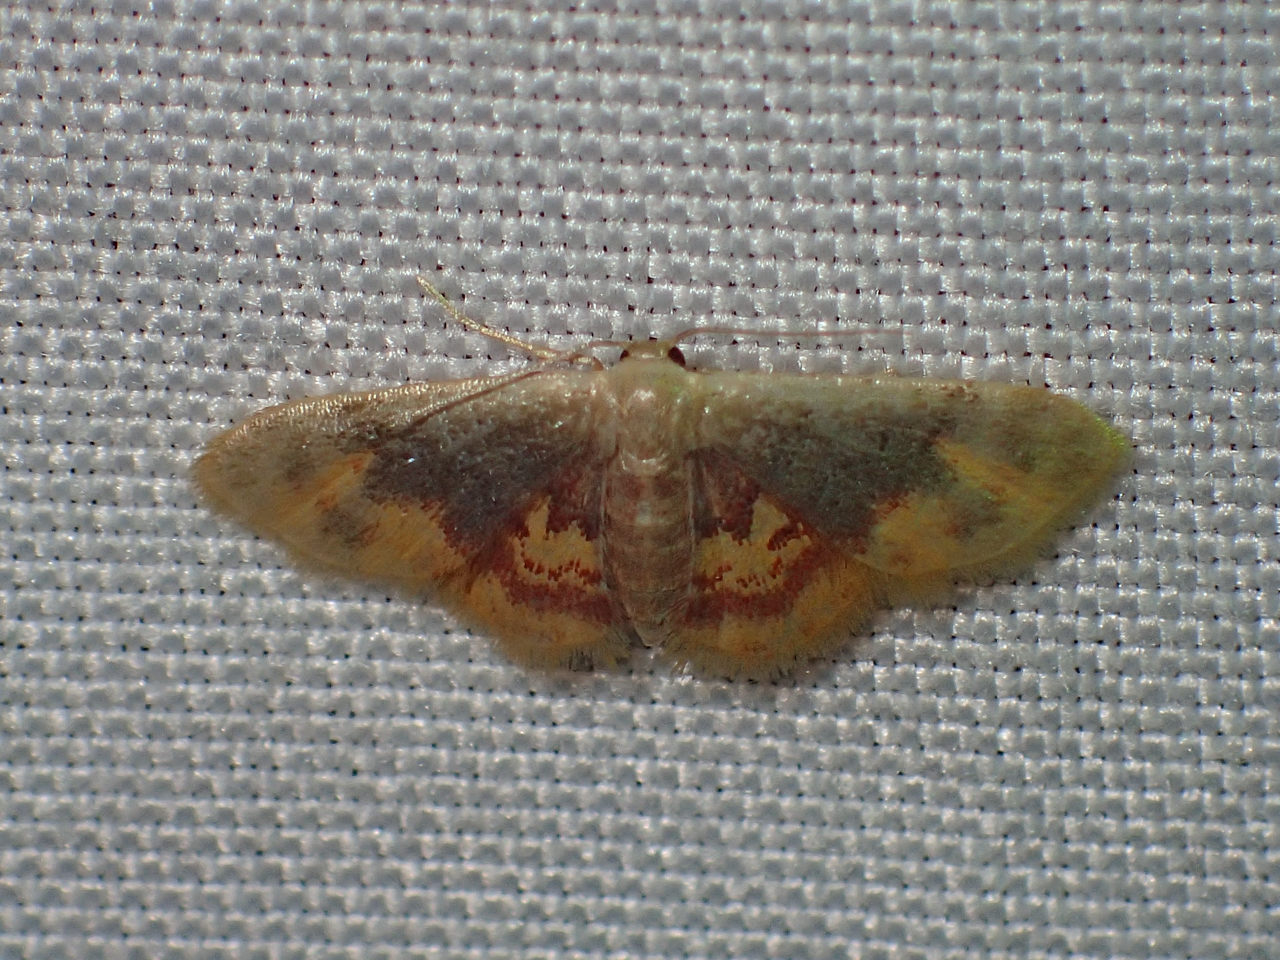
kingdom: Animalia
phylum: Arthropoda
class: Insecta
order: Lepidoptera
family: Geometridae
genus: Idaea
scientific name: Idaea scintillularia
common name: Diminutive wave
